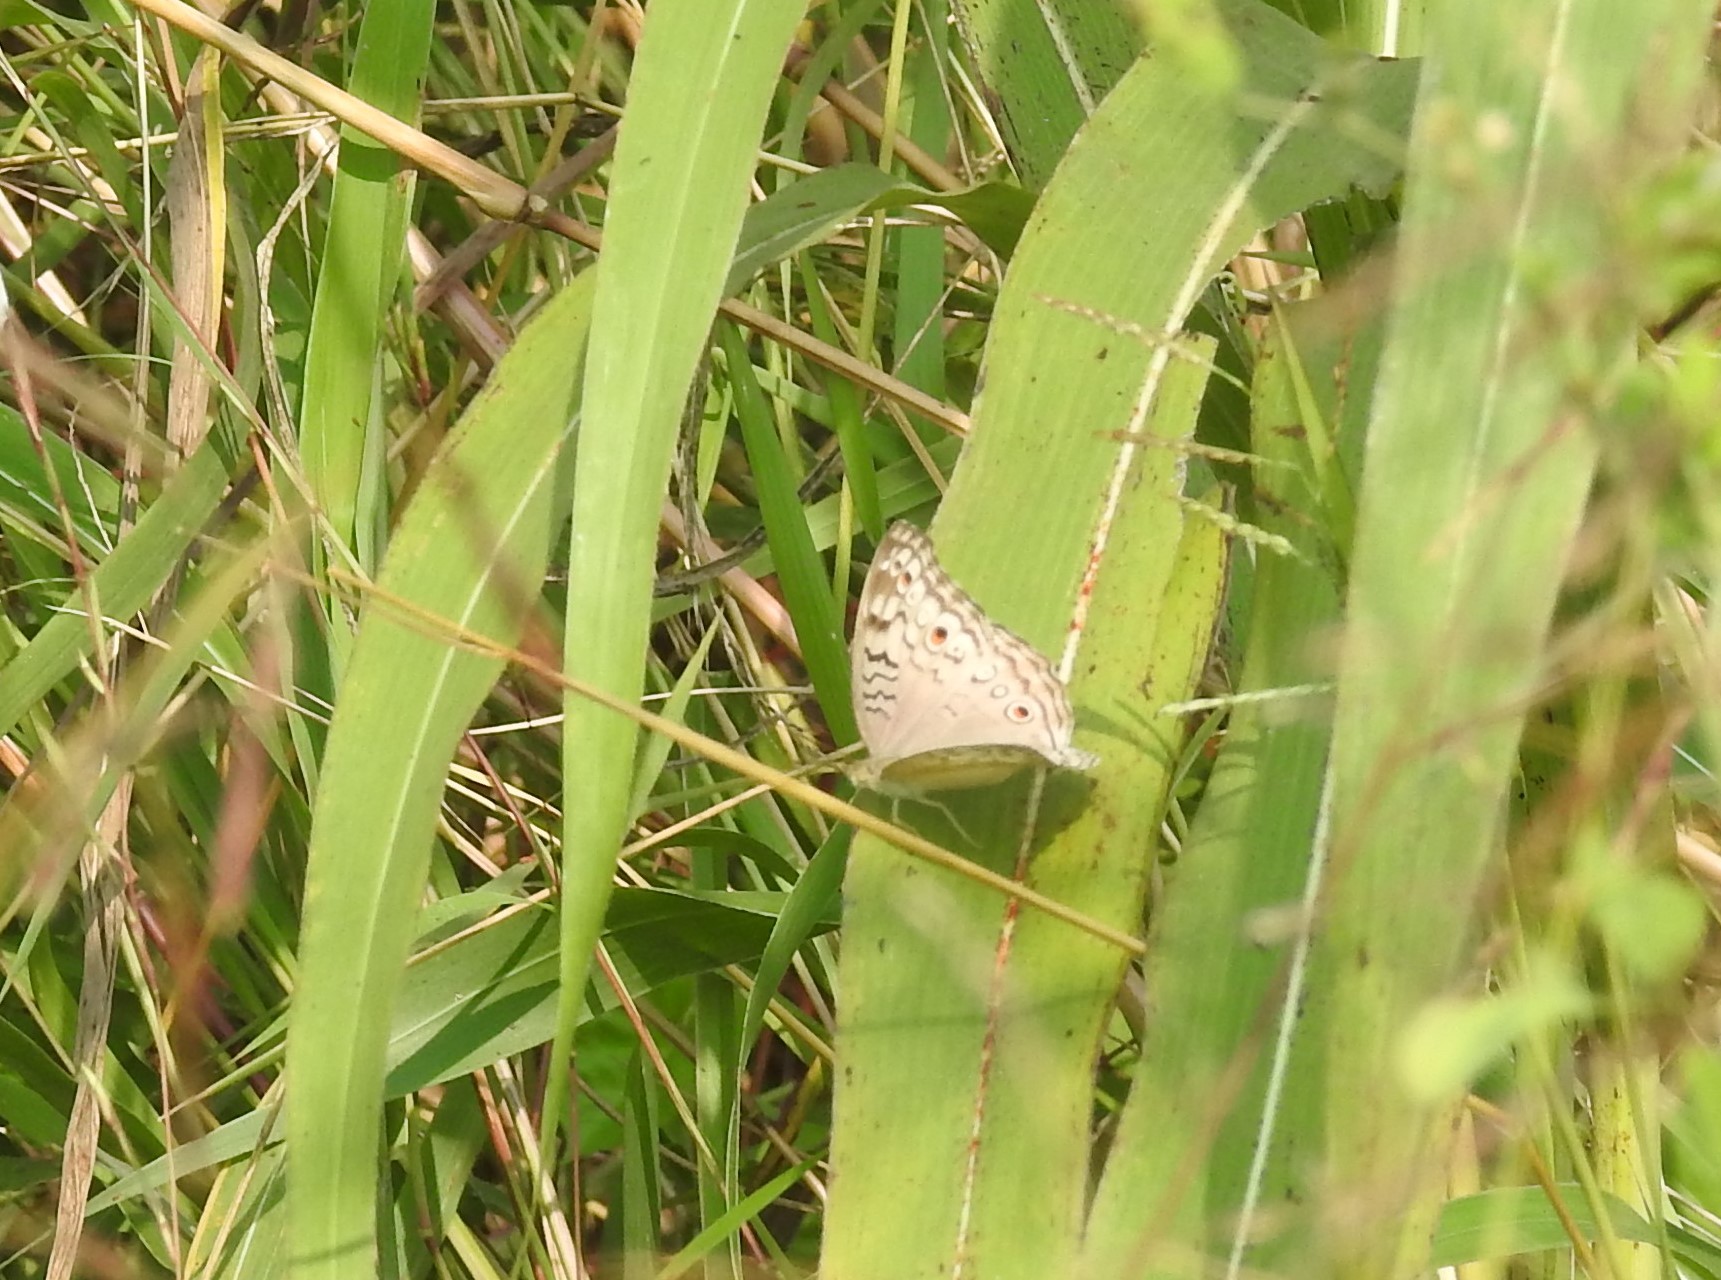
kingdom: Animalia
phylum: Arthropoda
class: Insecta
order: Lepidoptera
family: Nymphalidae
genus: Junonia
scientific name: Junonia atlites
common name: Grey pansy
